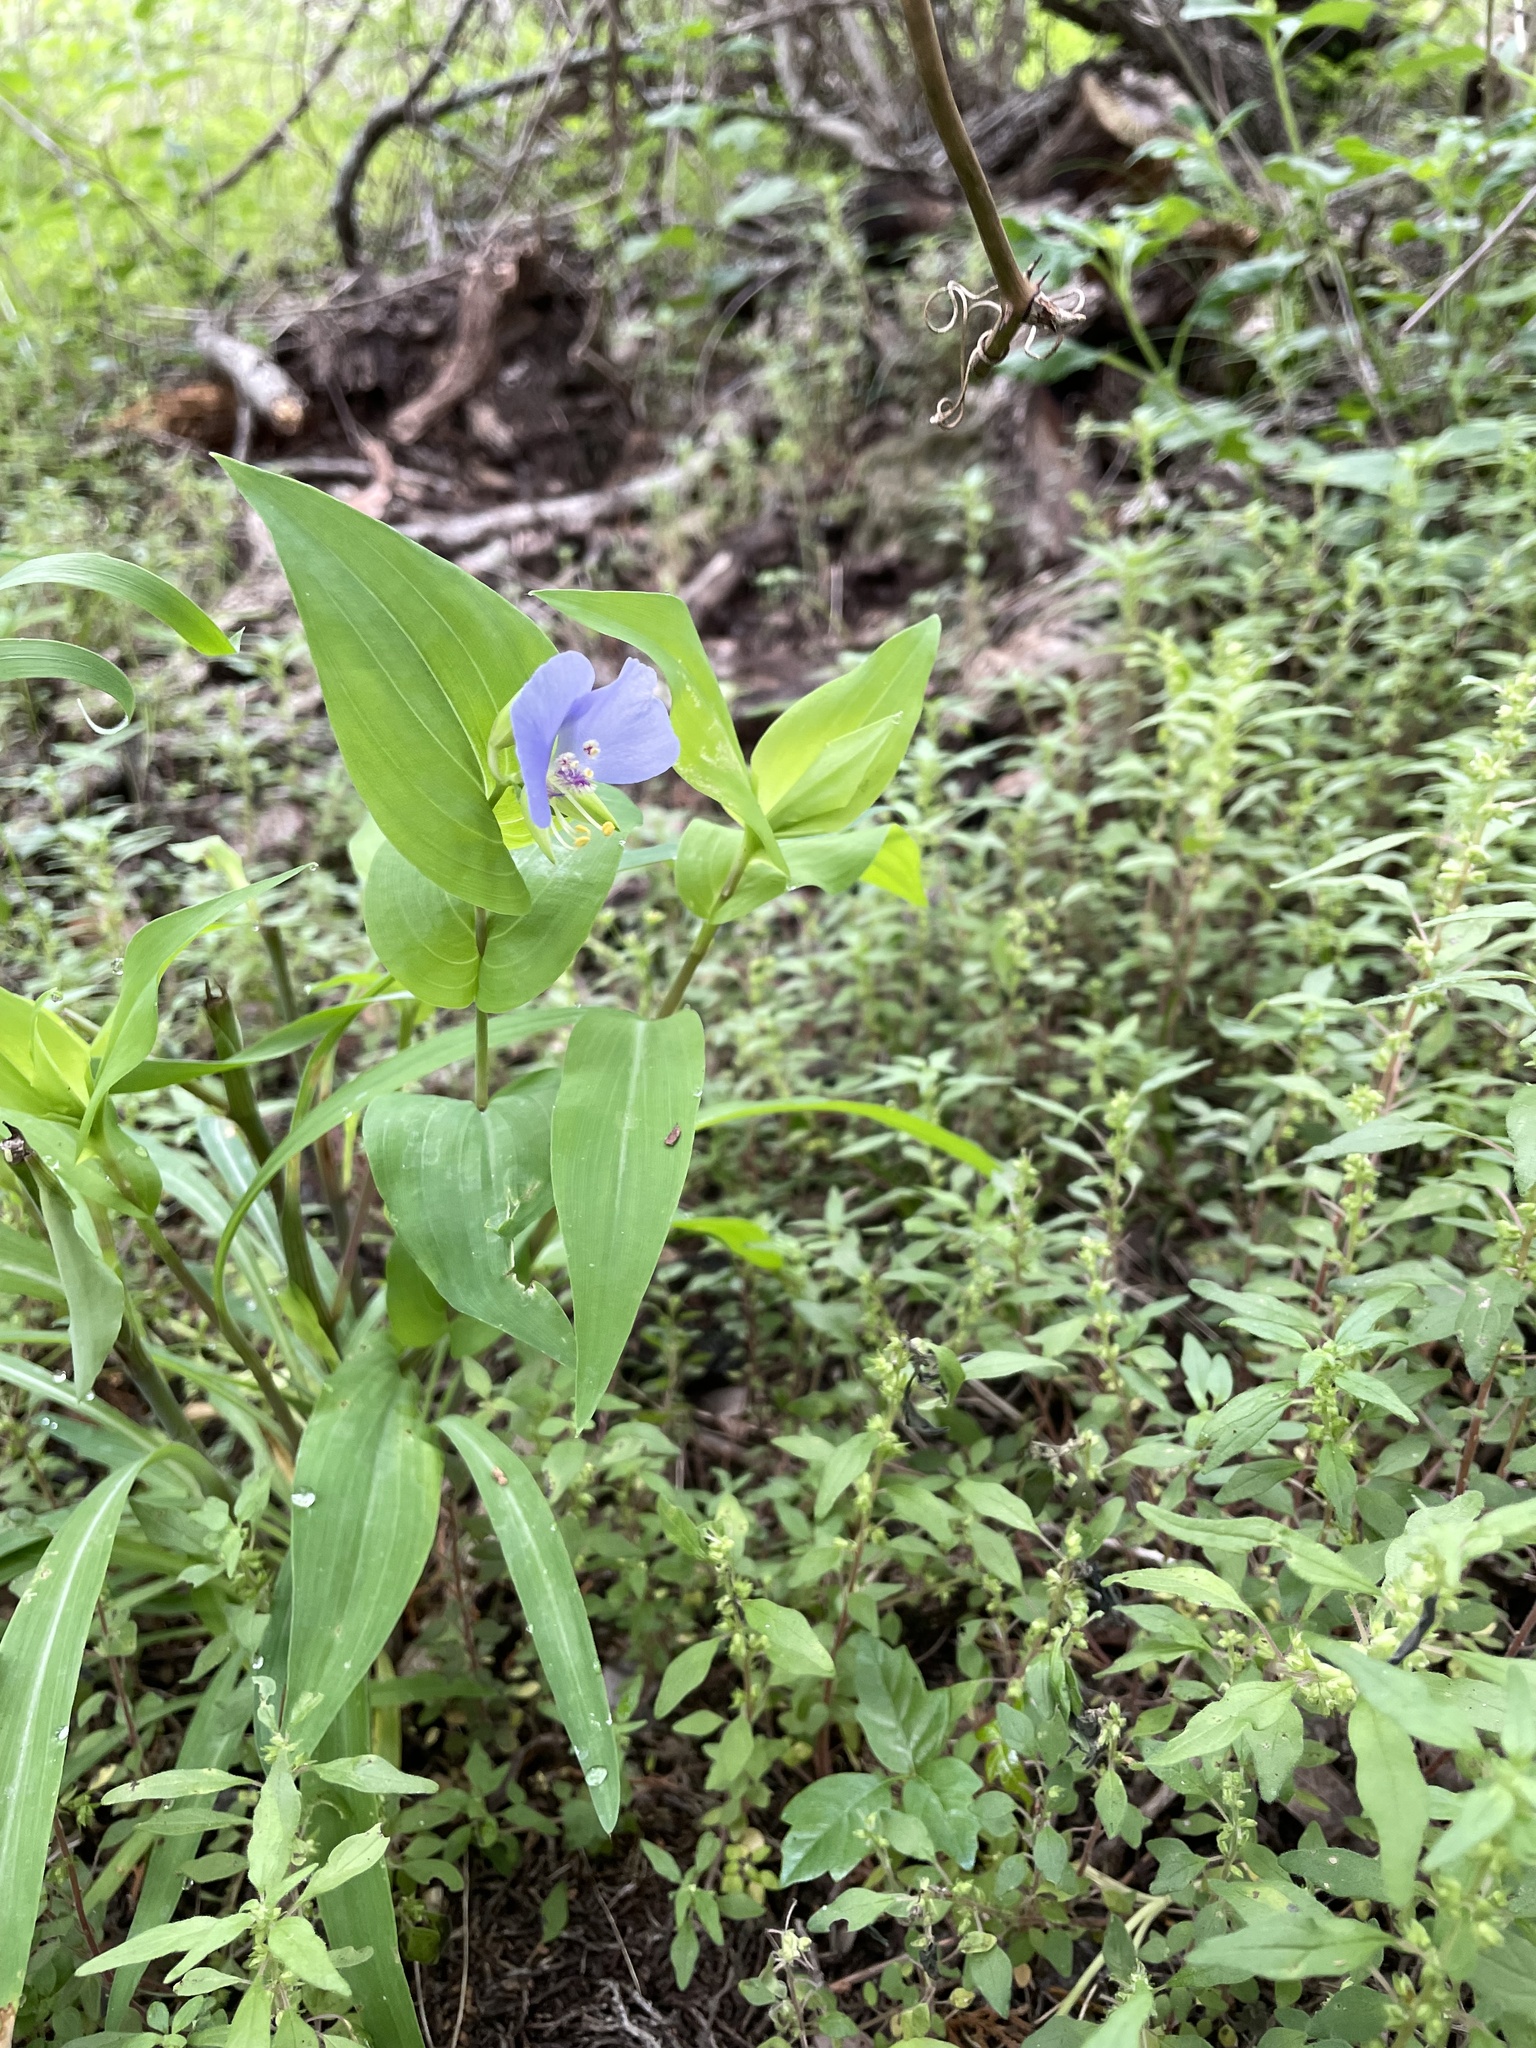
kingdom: Plantae
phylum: Tracheophyta
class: Liliopsida
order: Commelinales
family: Commelinaceae
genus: Tinantia
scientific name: Tinantia anomala
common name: False dayflower
